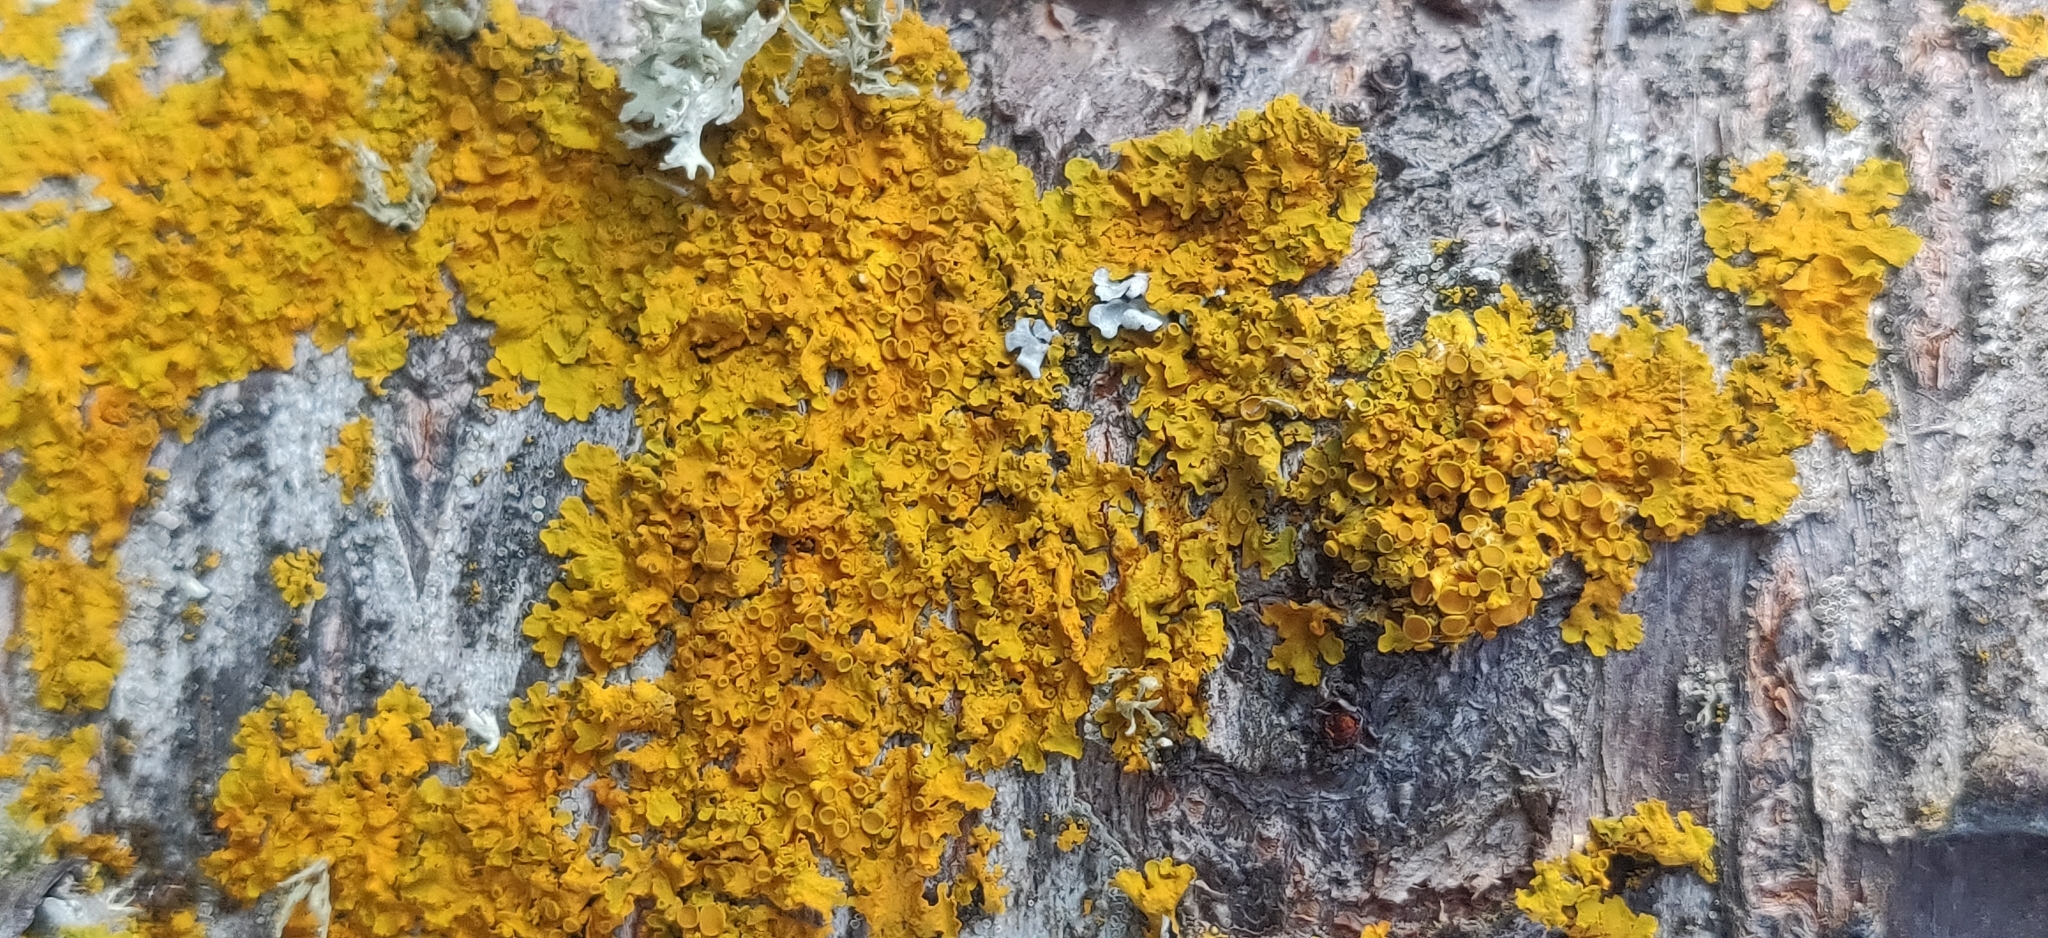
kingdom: Fungi
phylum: Ascomycota
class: Lecanoromycetes
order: Teloschistales
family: Teloschistaceae
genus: Xanthoria
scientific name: Xanthoria parietina
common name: Common orange lichen
